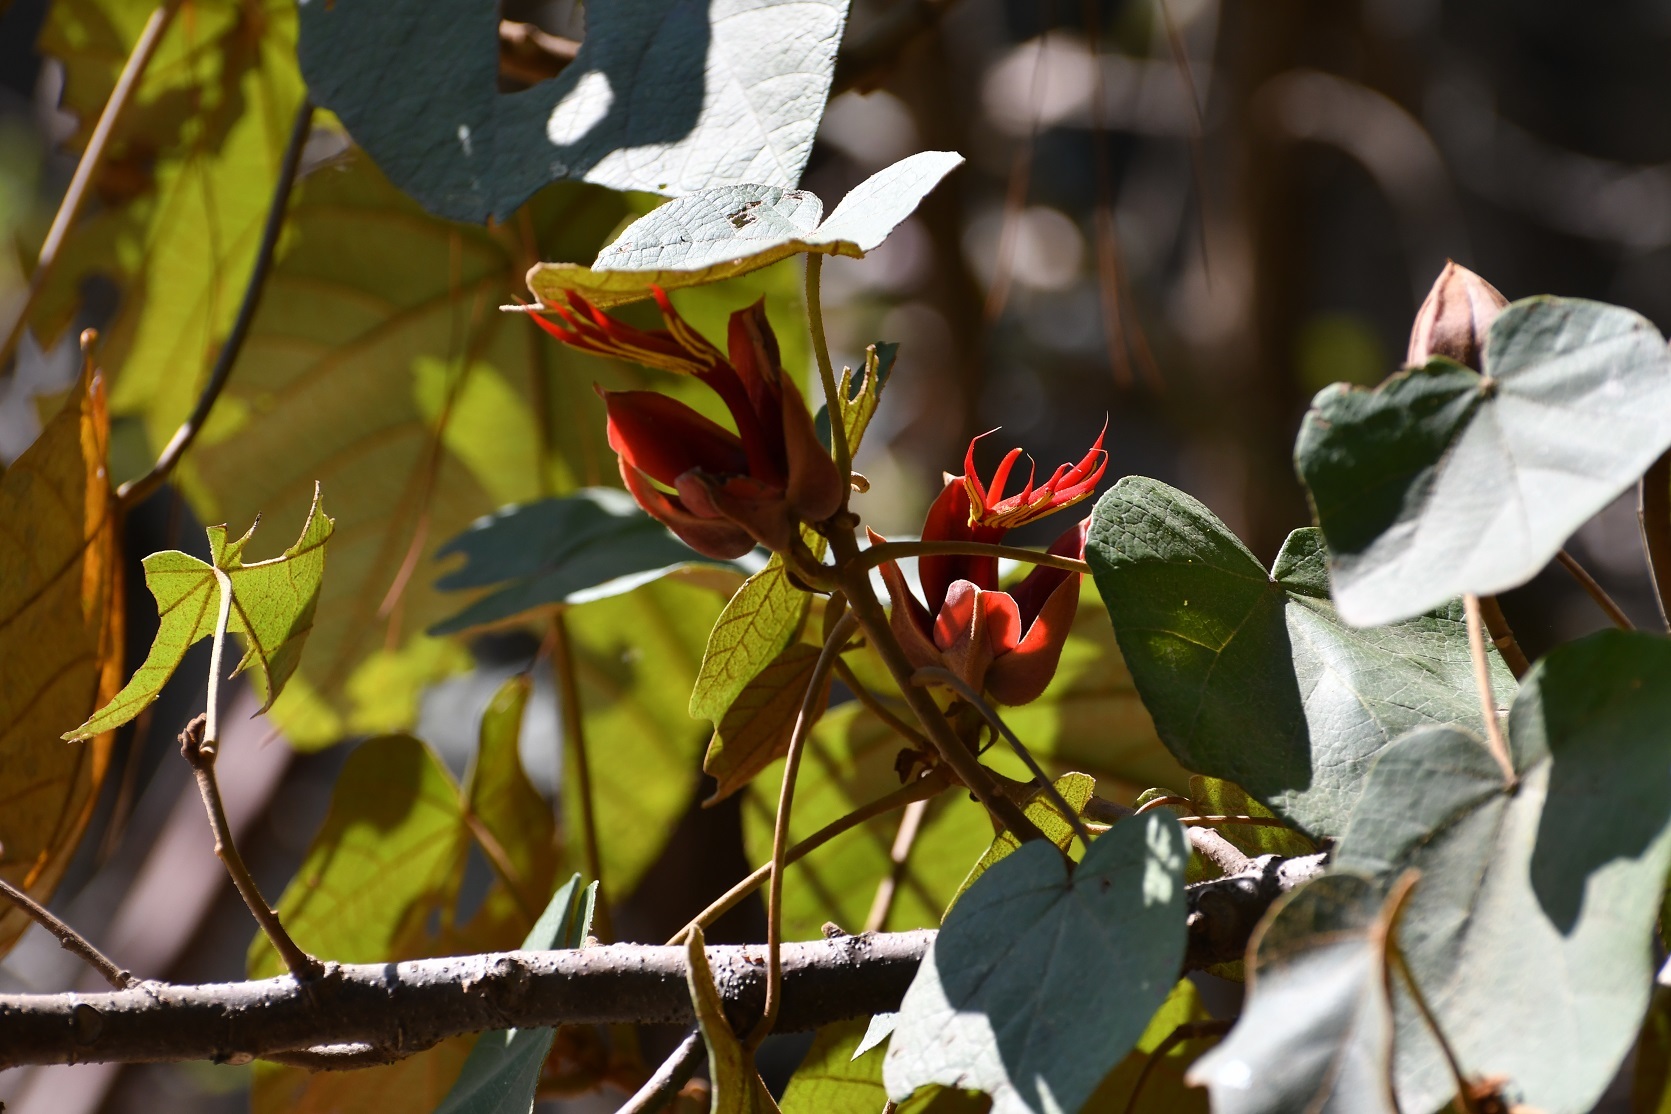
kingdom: Plantae
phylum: Tracheophyta
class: Magnoliopsida
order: Malvales
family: Malvaceae
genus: Chiranthodendron
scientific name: Chiranthodendron pentadactylon
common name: Mexican-hat-plant
